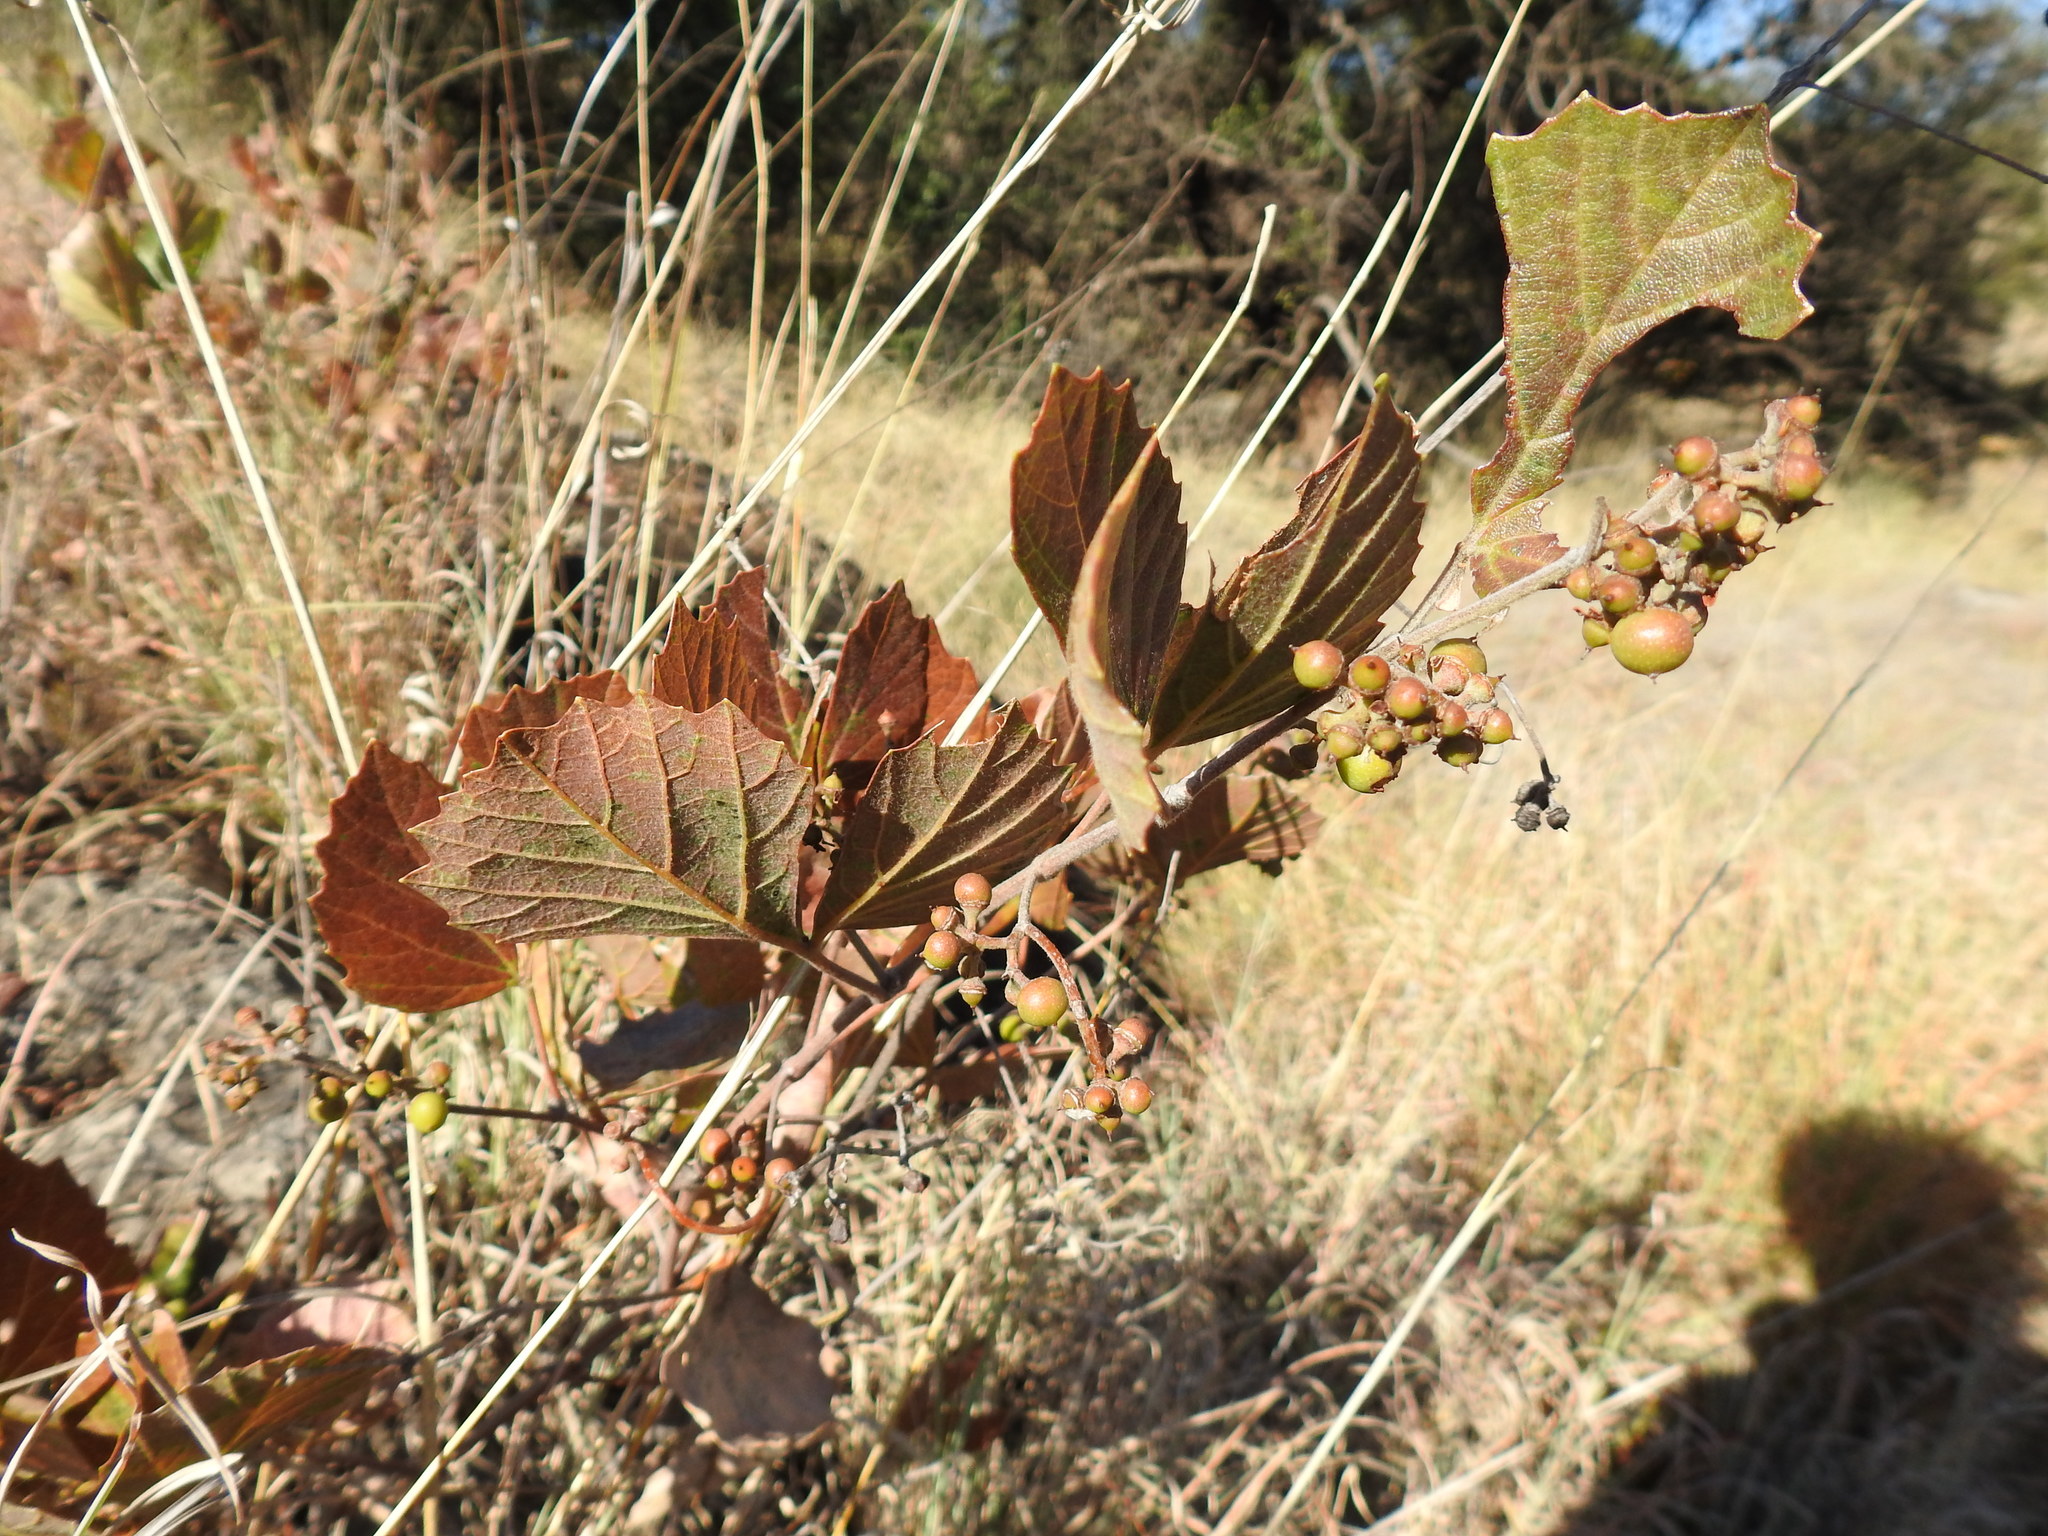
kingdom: Plantae
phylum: Tracheophyta
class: Magnoliopsida
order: Vitales
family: Vitaceae
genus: Rhoicissus
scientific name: Rhoicissus tridentata
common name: Common forest grape
